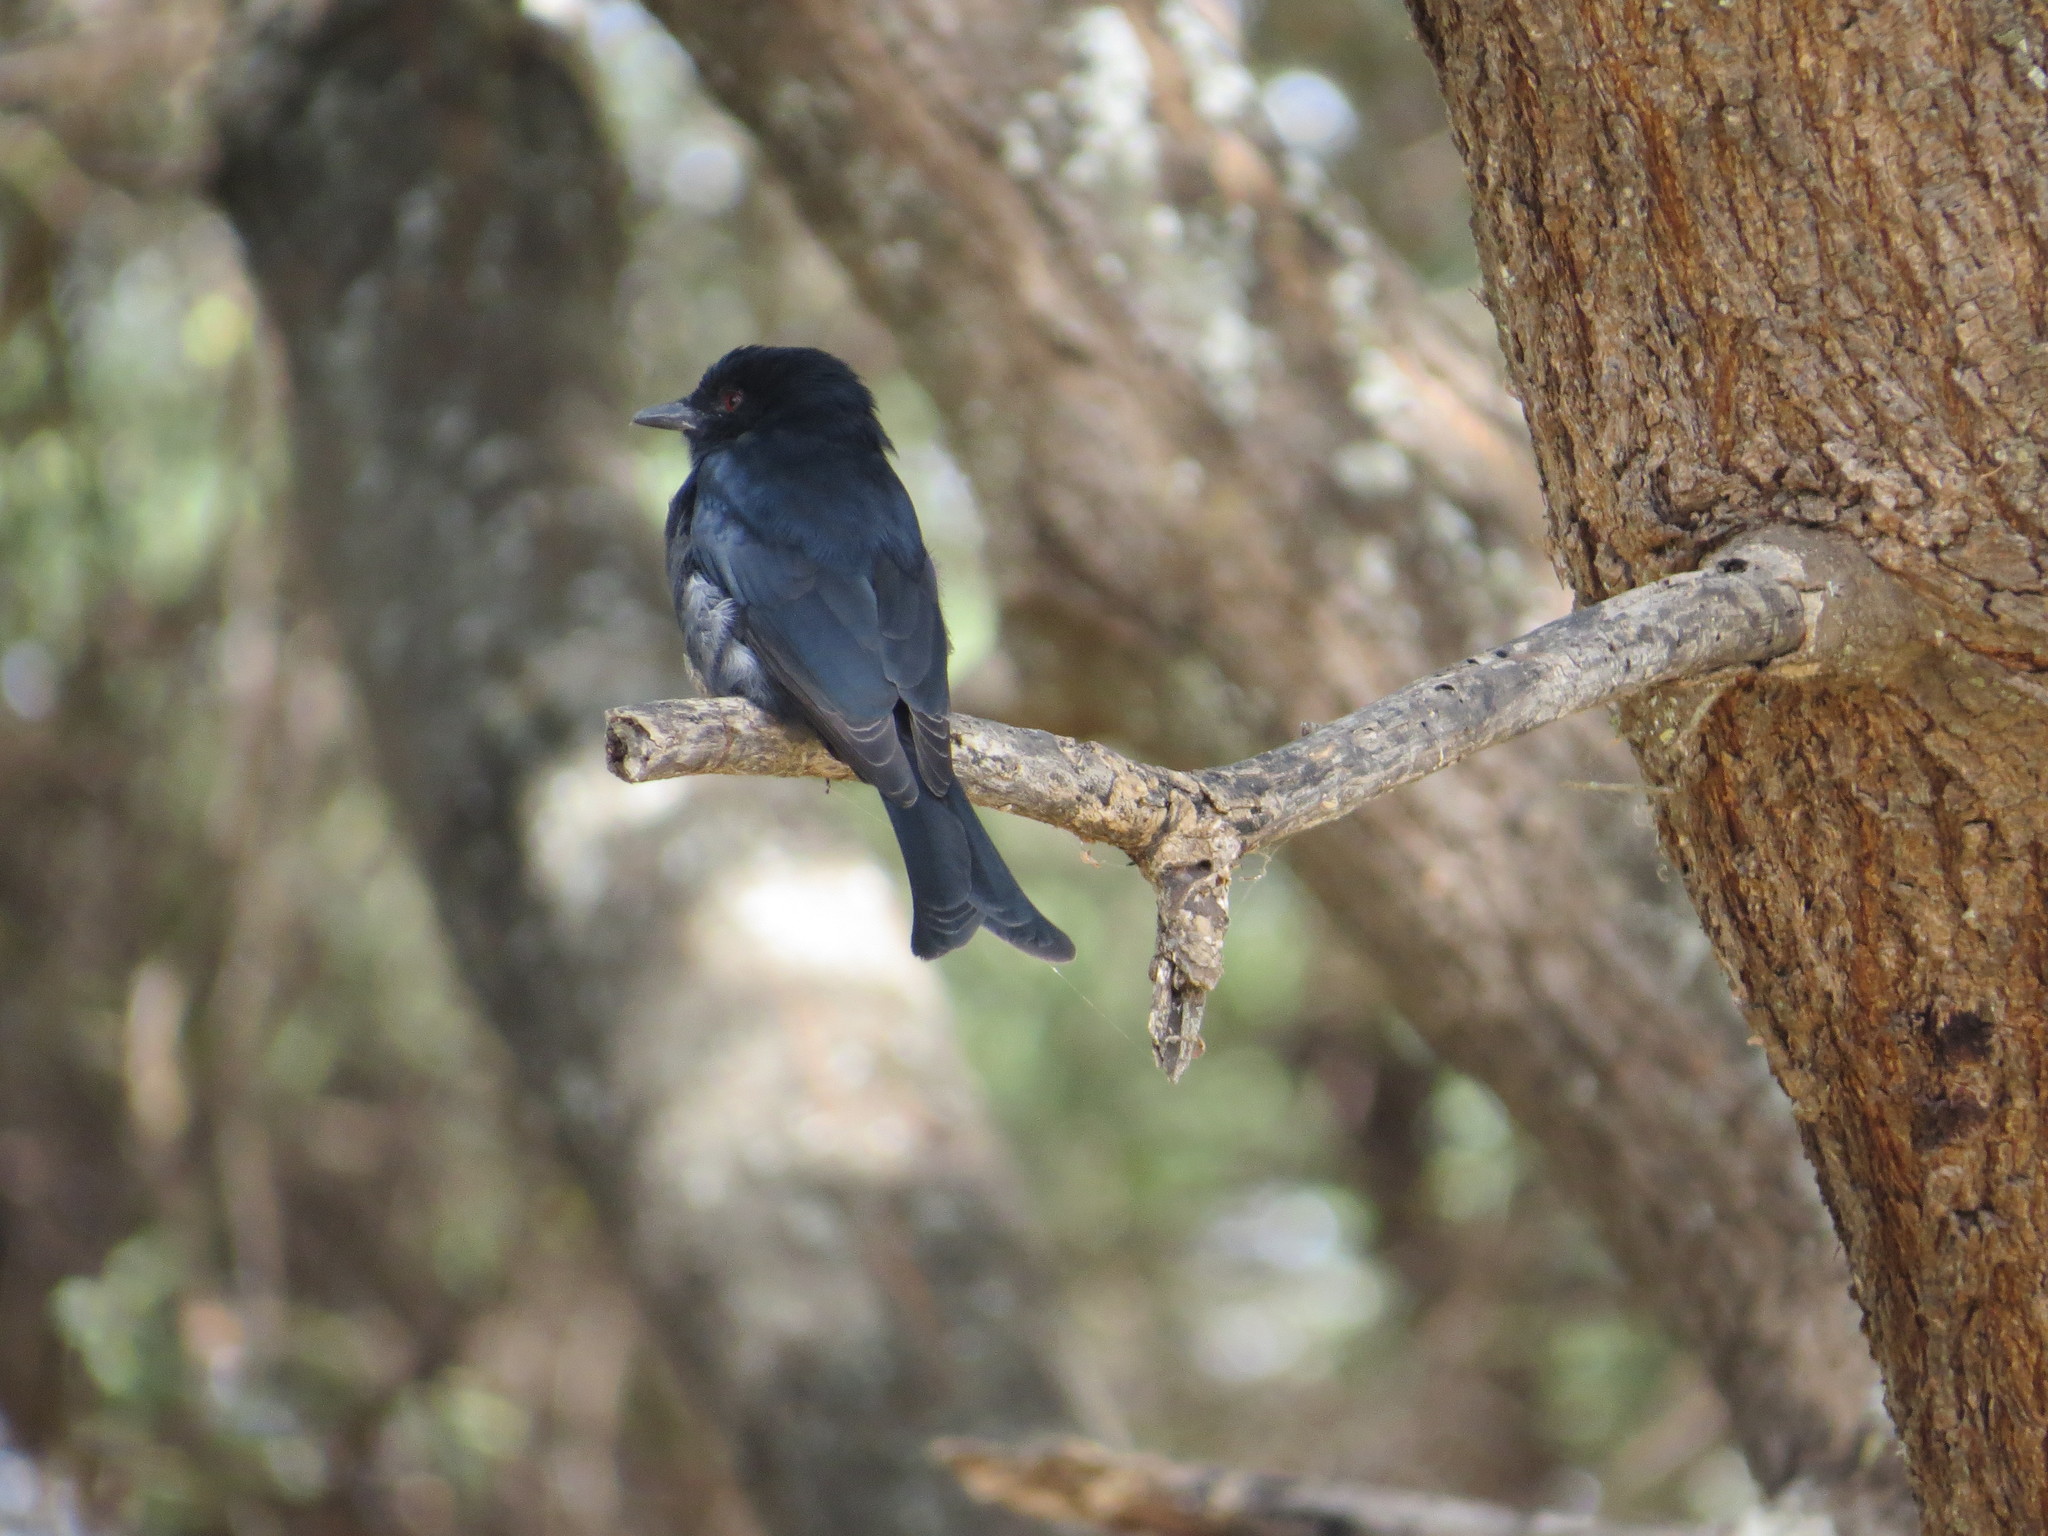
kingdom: Animalia
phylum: Chordata
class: Aves
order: Passeriformes
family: Dicruridae
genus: Dicrurus
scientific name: Dicrurus adsimilis
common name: Fork-tailed drongo
